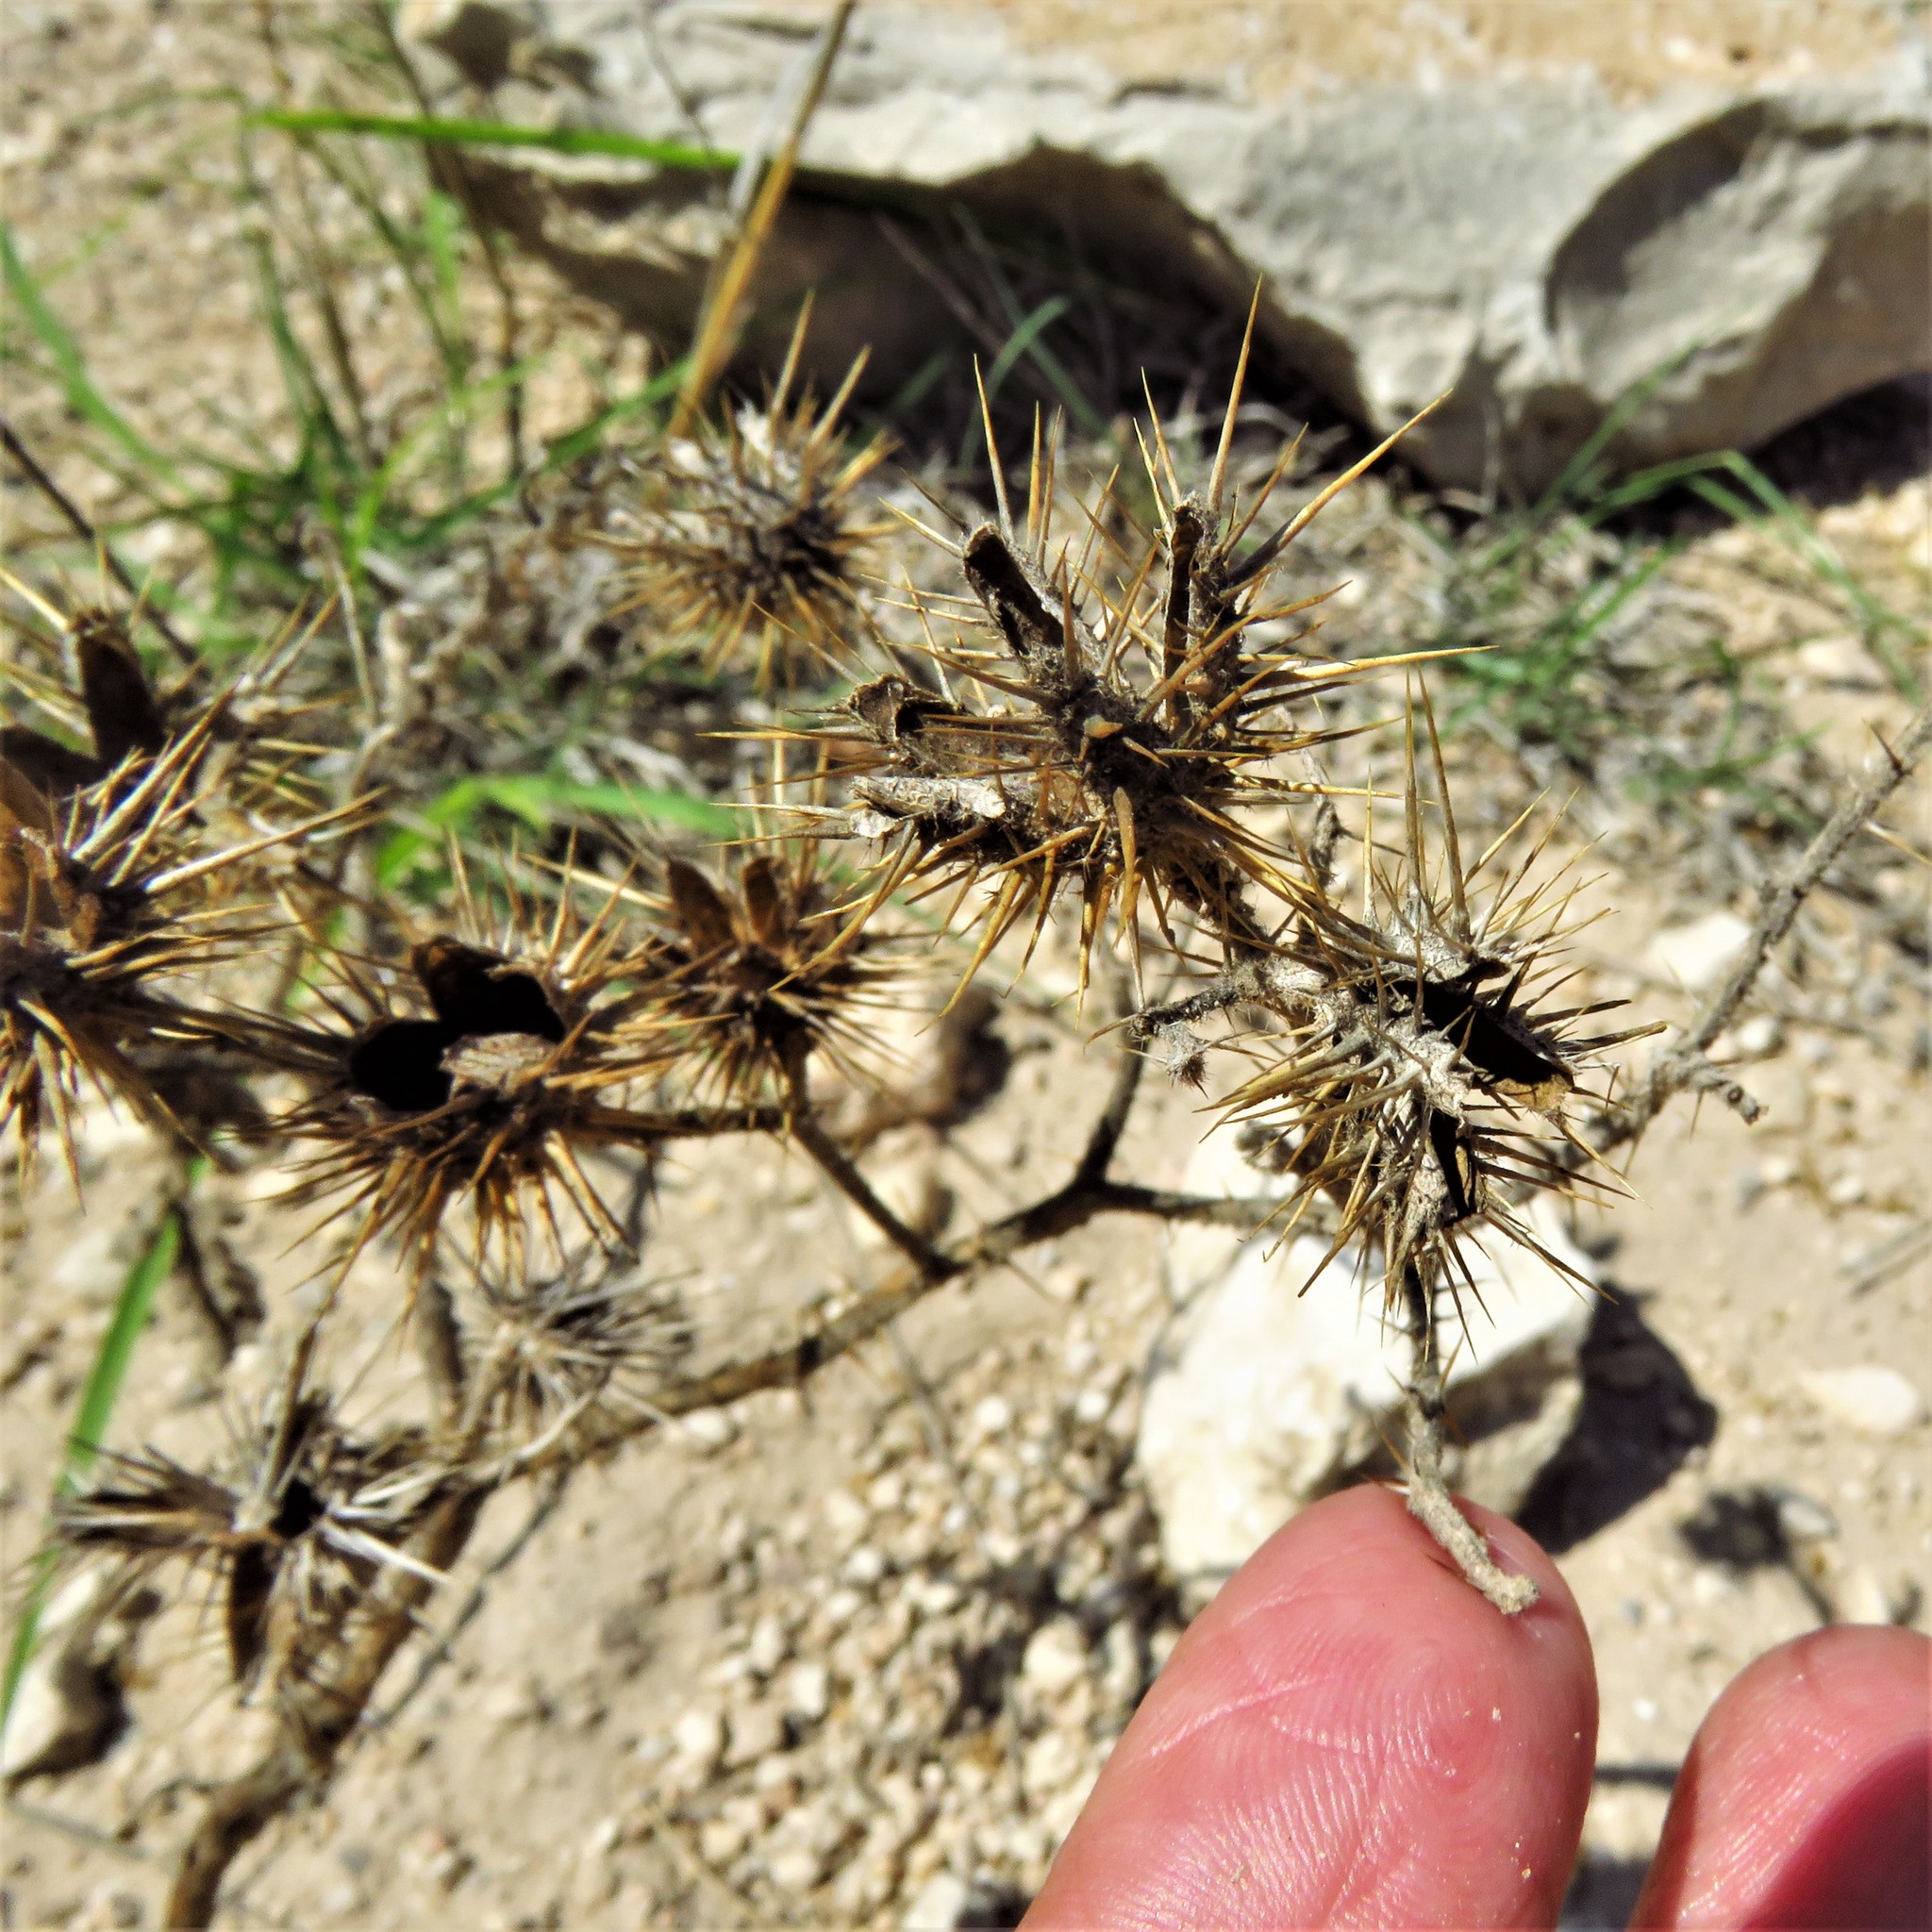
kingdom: Plantae
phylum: Tracheophyta
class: Magnoliopsida
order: Solanales
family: Solanaceae
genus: Solanum
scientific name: Solanum angustifolium
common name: Buffalobur nightshade
